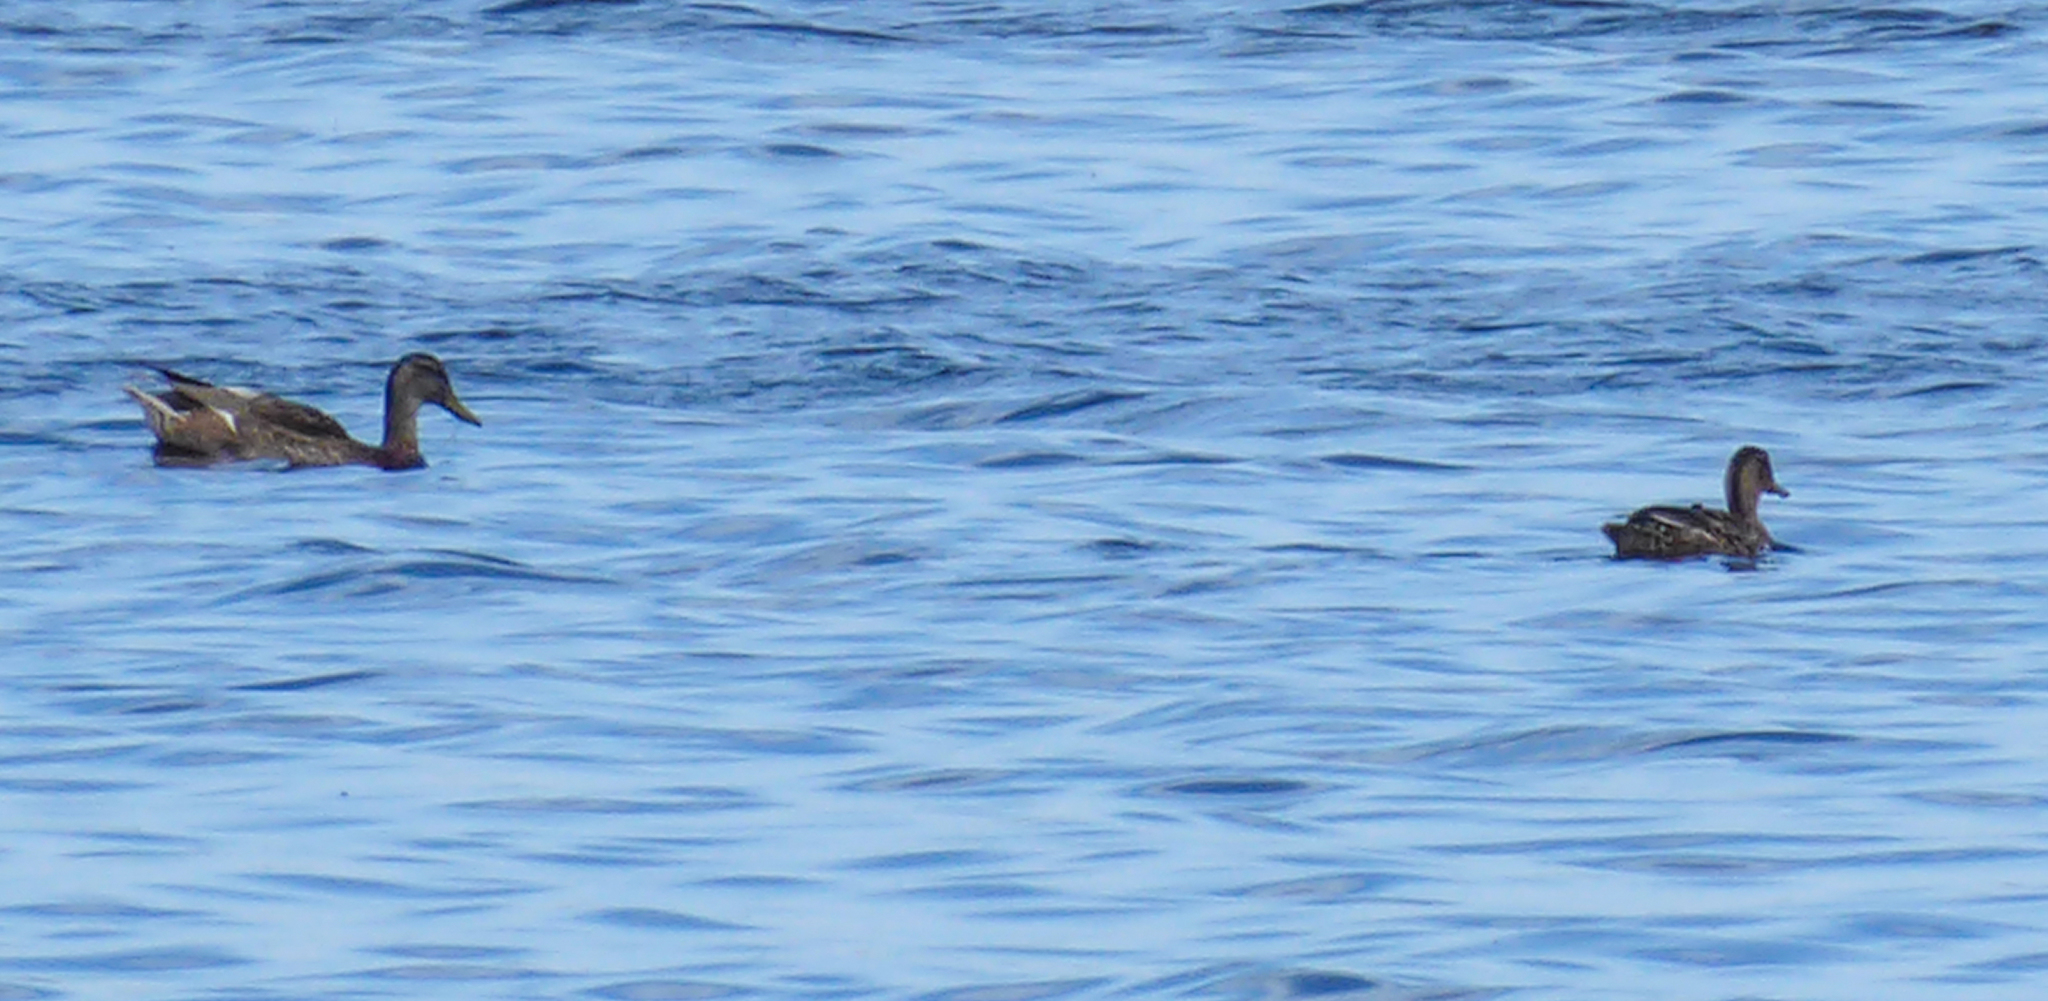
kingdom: Animalia
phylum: Chordata
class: Aves
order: Anseriformes
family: Anatidae
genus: Anas
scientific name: Anas platyrhynchos
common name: Mallard
